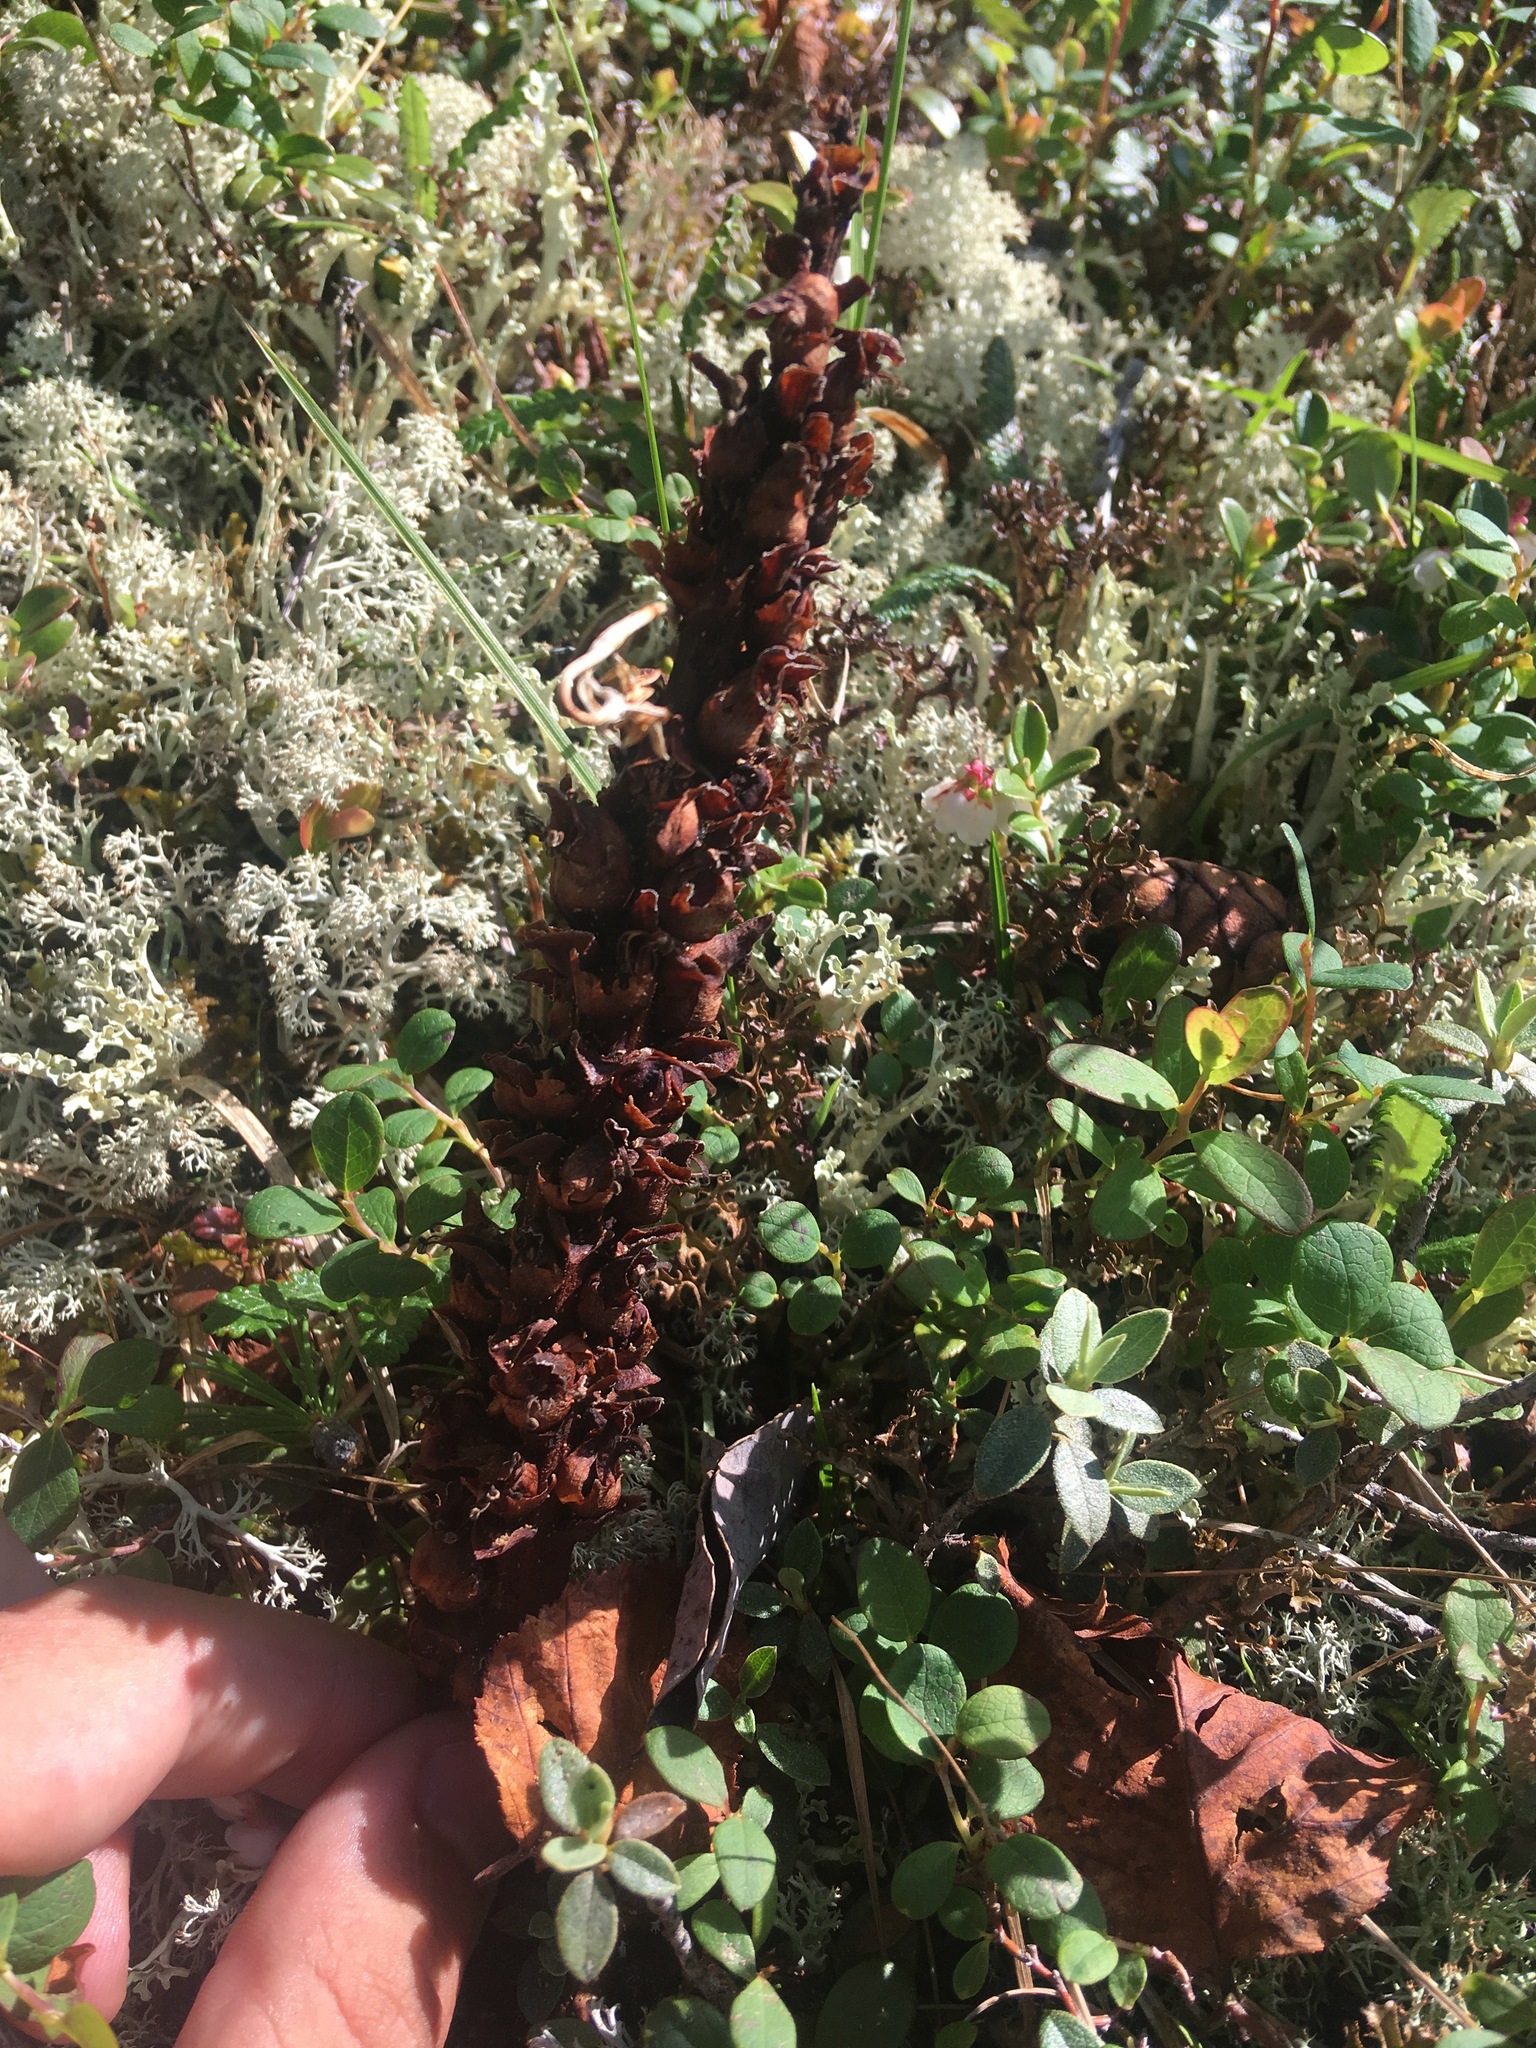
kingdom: Plantae
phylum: Tracheophyta
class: Magnoliopsida
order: Lamiales
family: Orobanchaceae
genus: Boschniakia
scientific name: Boschniakia rossica
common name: Poque
